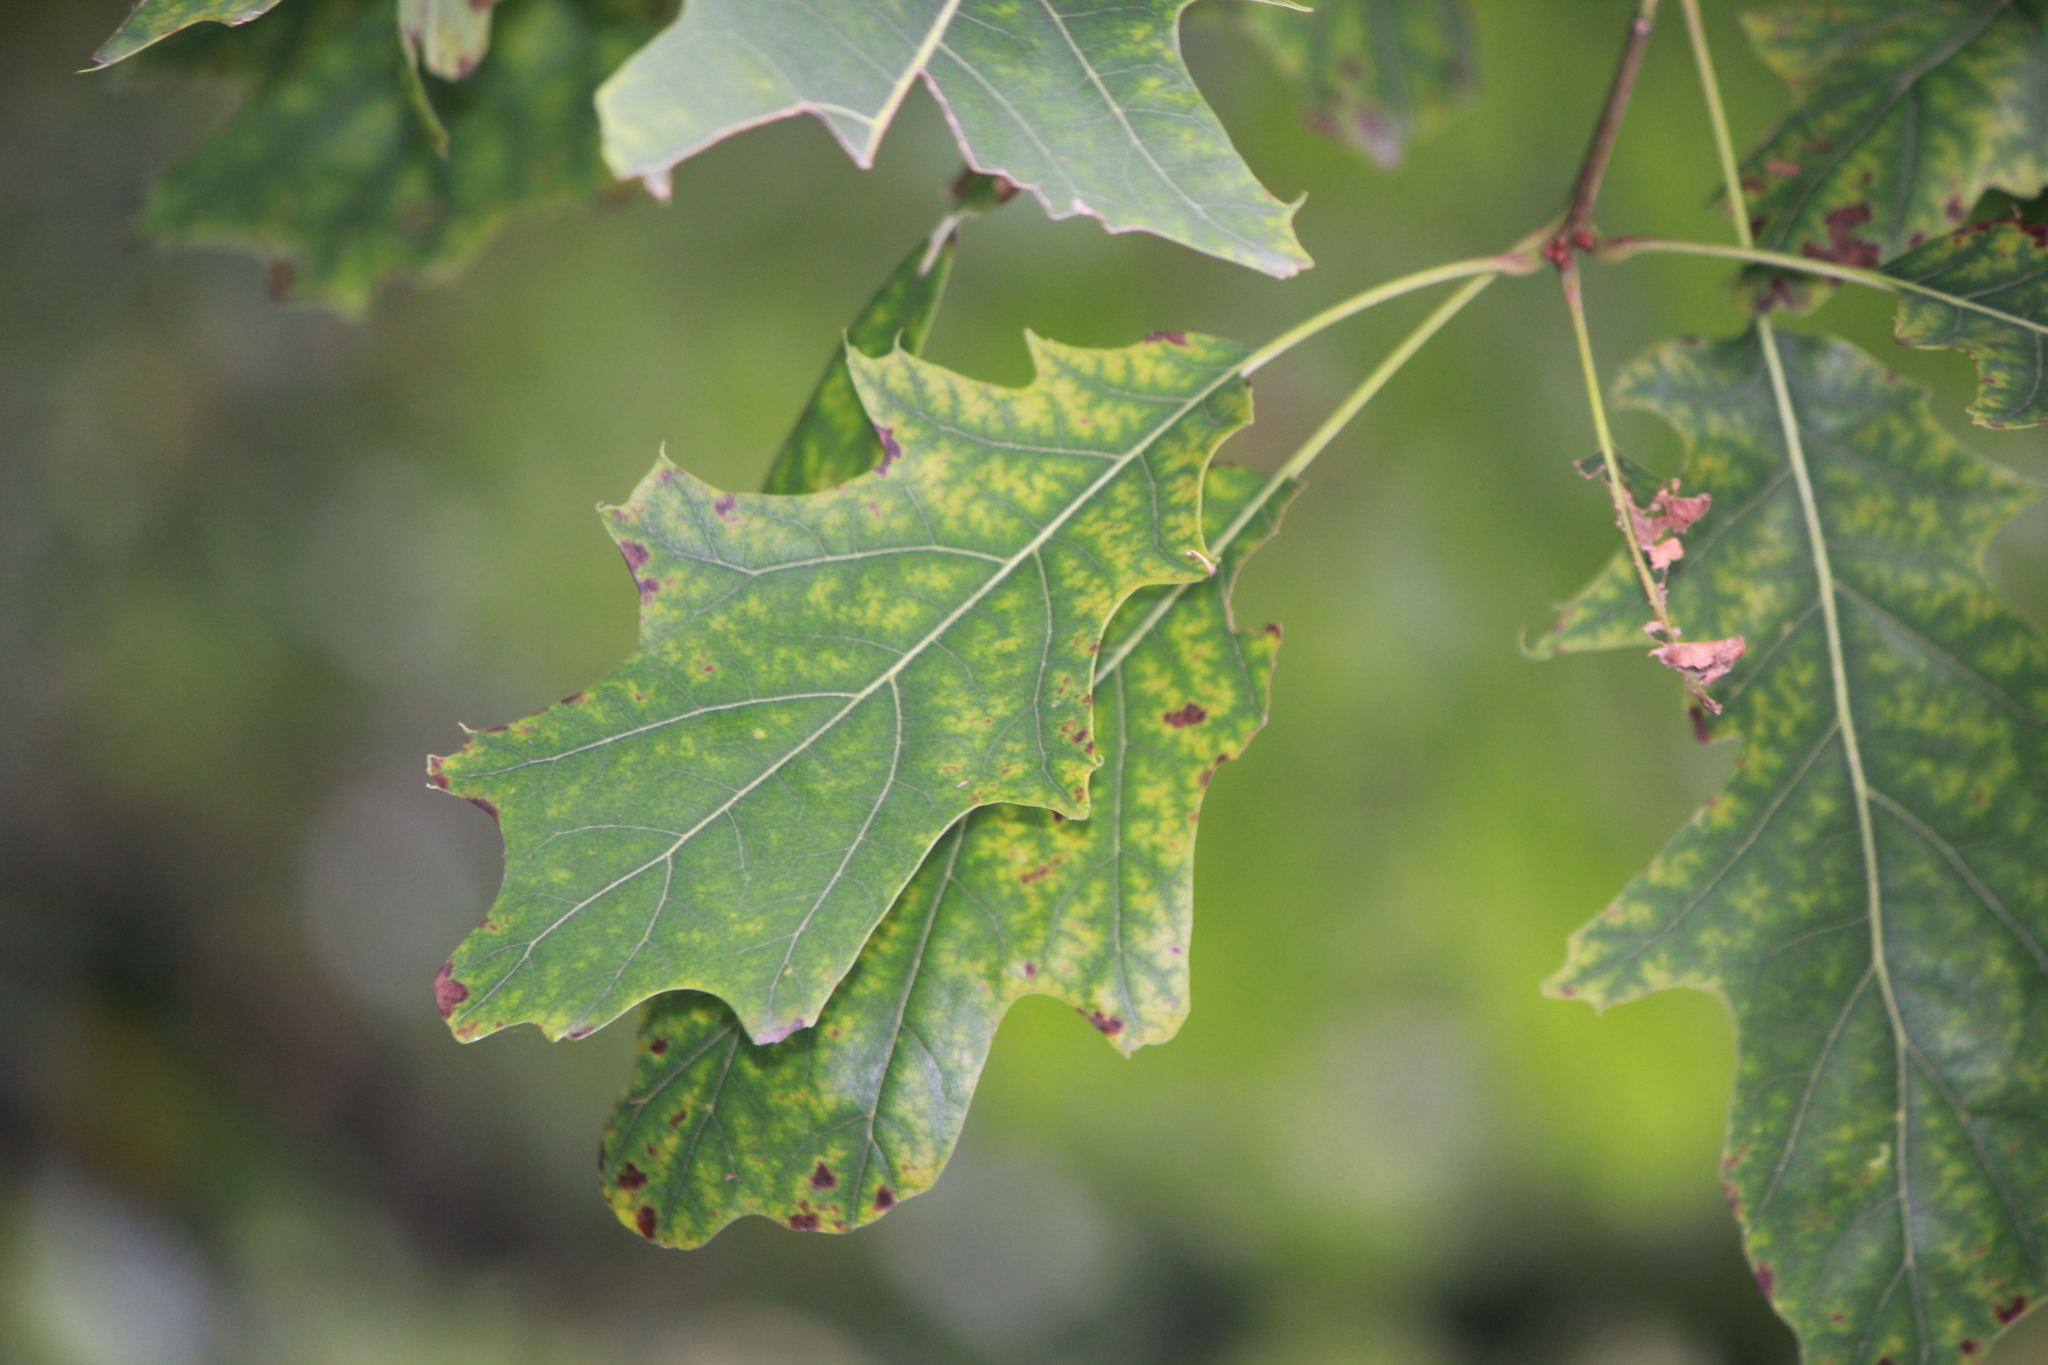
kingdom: Plantae
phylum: Tracheophyta
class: Magnoliopsida
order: Fagales
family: Fagaceae
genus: Quercus
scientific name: Quercus rubra
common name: Red oak
